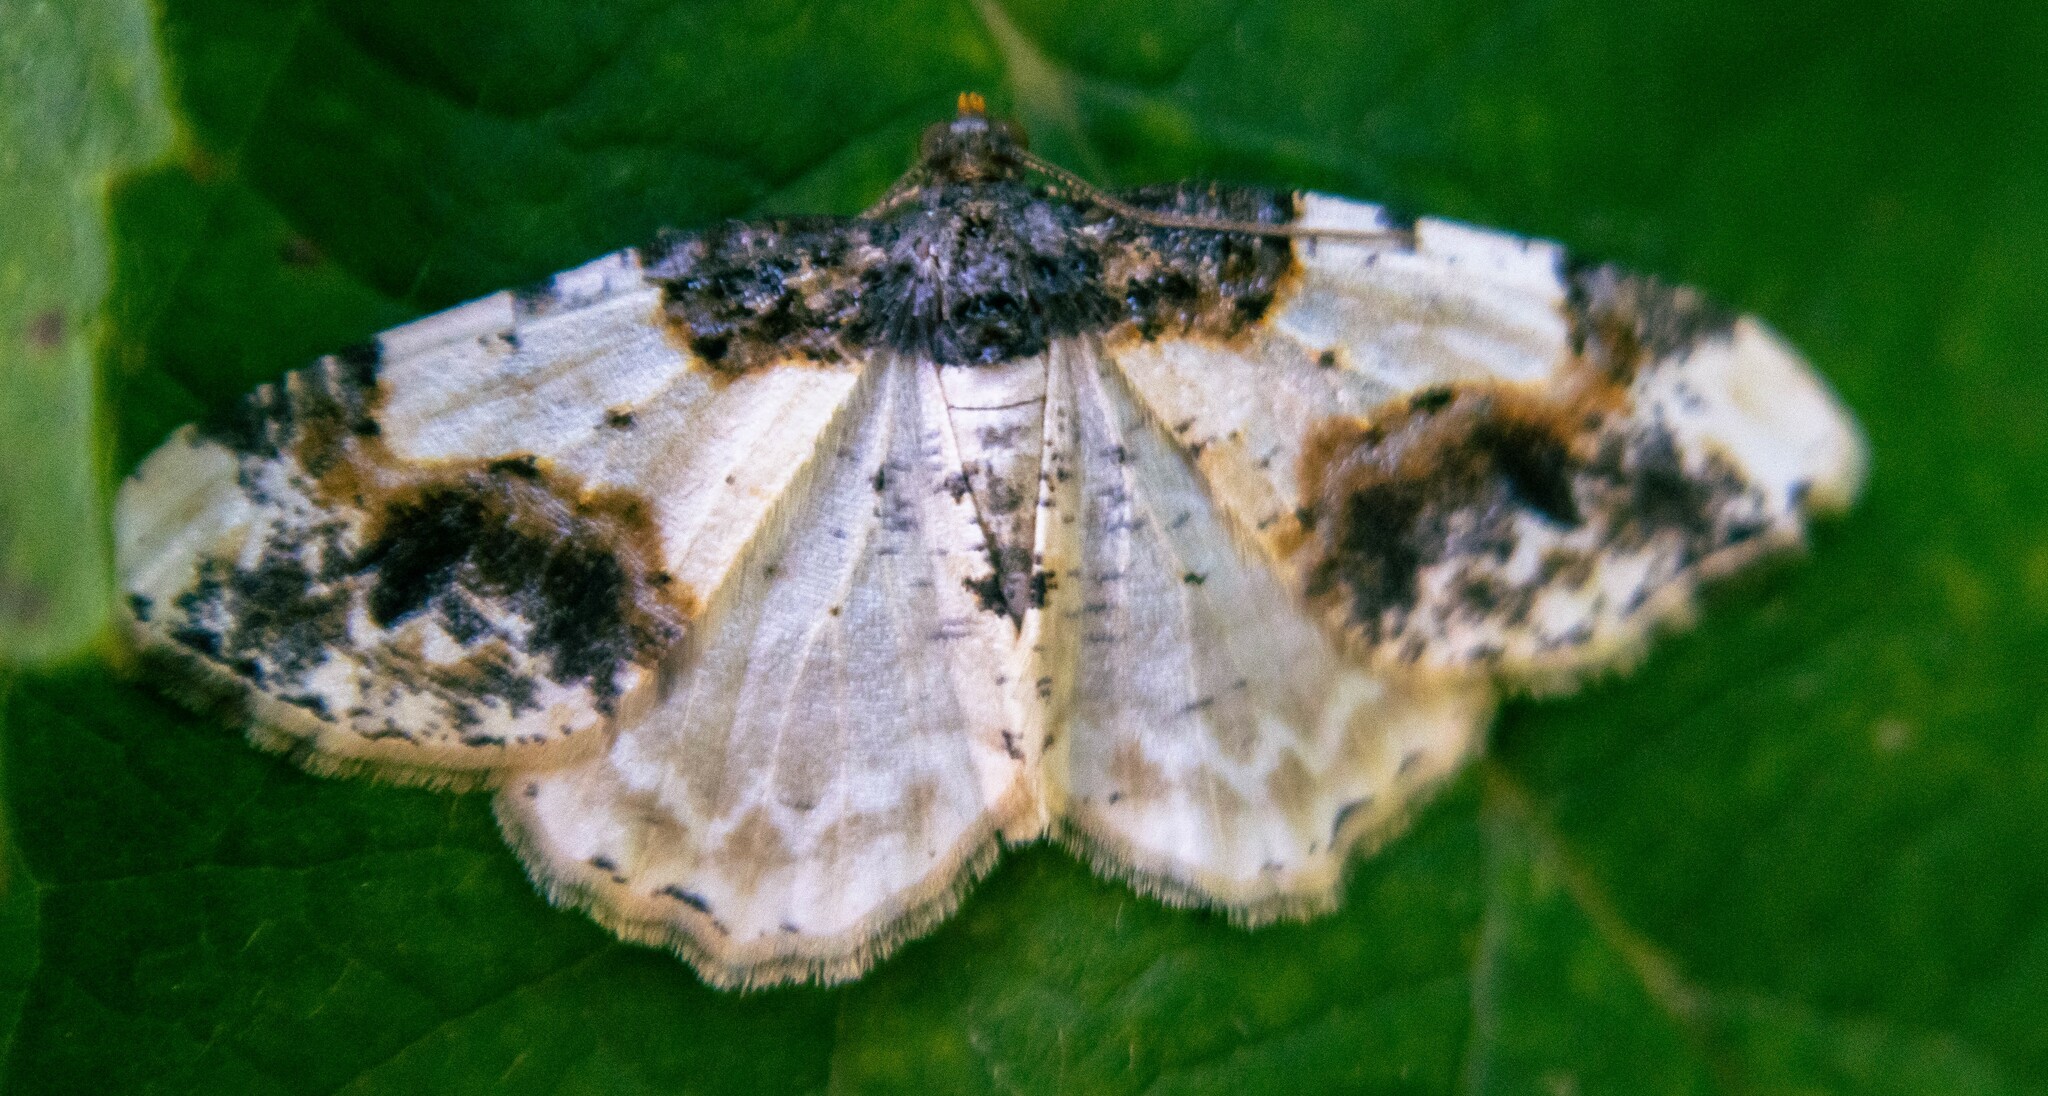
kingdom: Animalia
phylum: Arthropoda
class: Insecta
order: Lepidoptera
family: Geometridae
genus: Ligdia
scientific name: Ligdia adustata
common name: Scorched carpet
